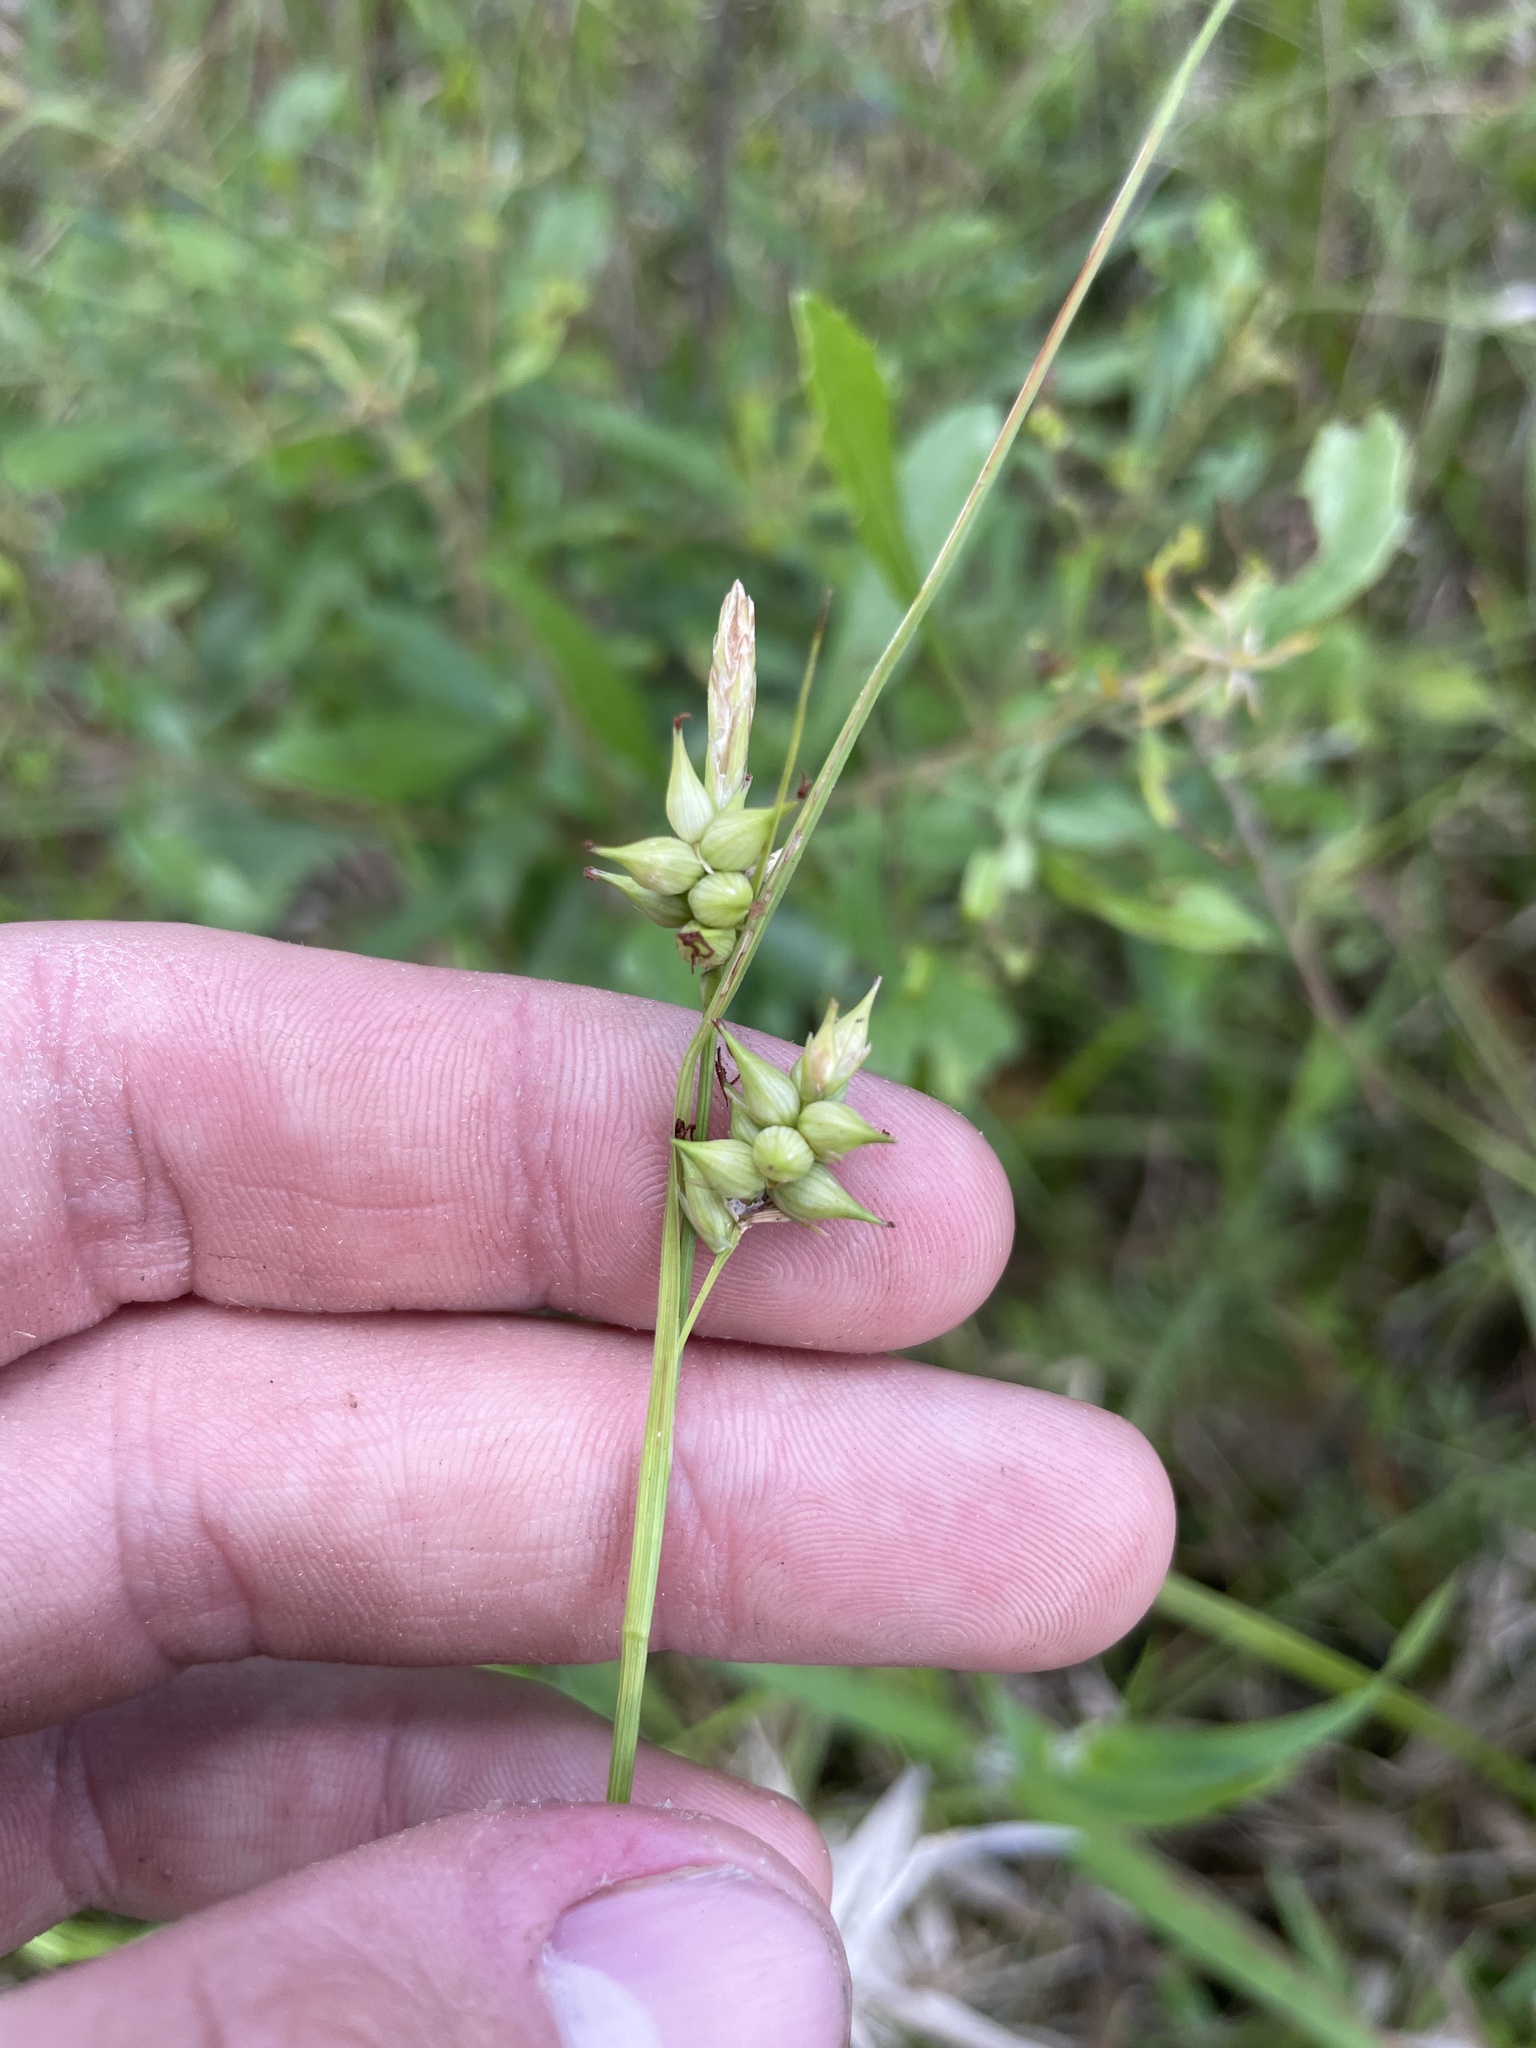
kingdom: Plantae
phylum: Tracheophyta
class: Liliopsida
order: Poales
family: Cyperaceae
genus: Carex
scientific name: Carex turgescens
